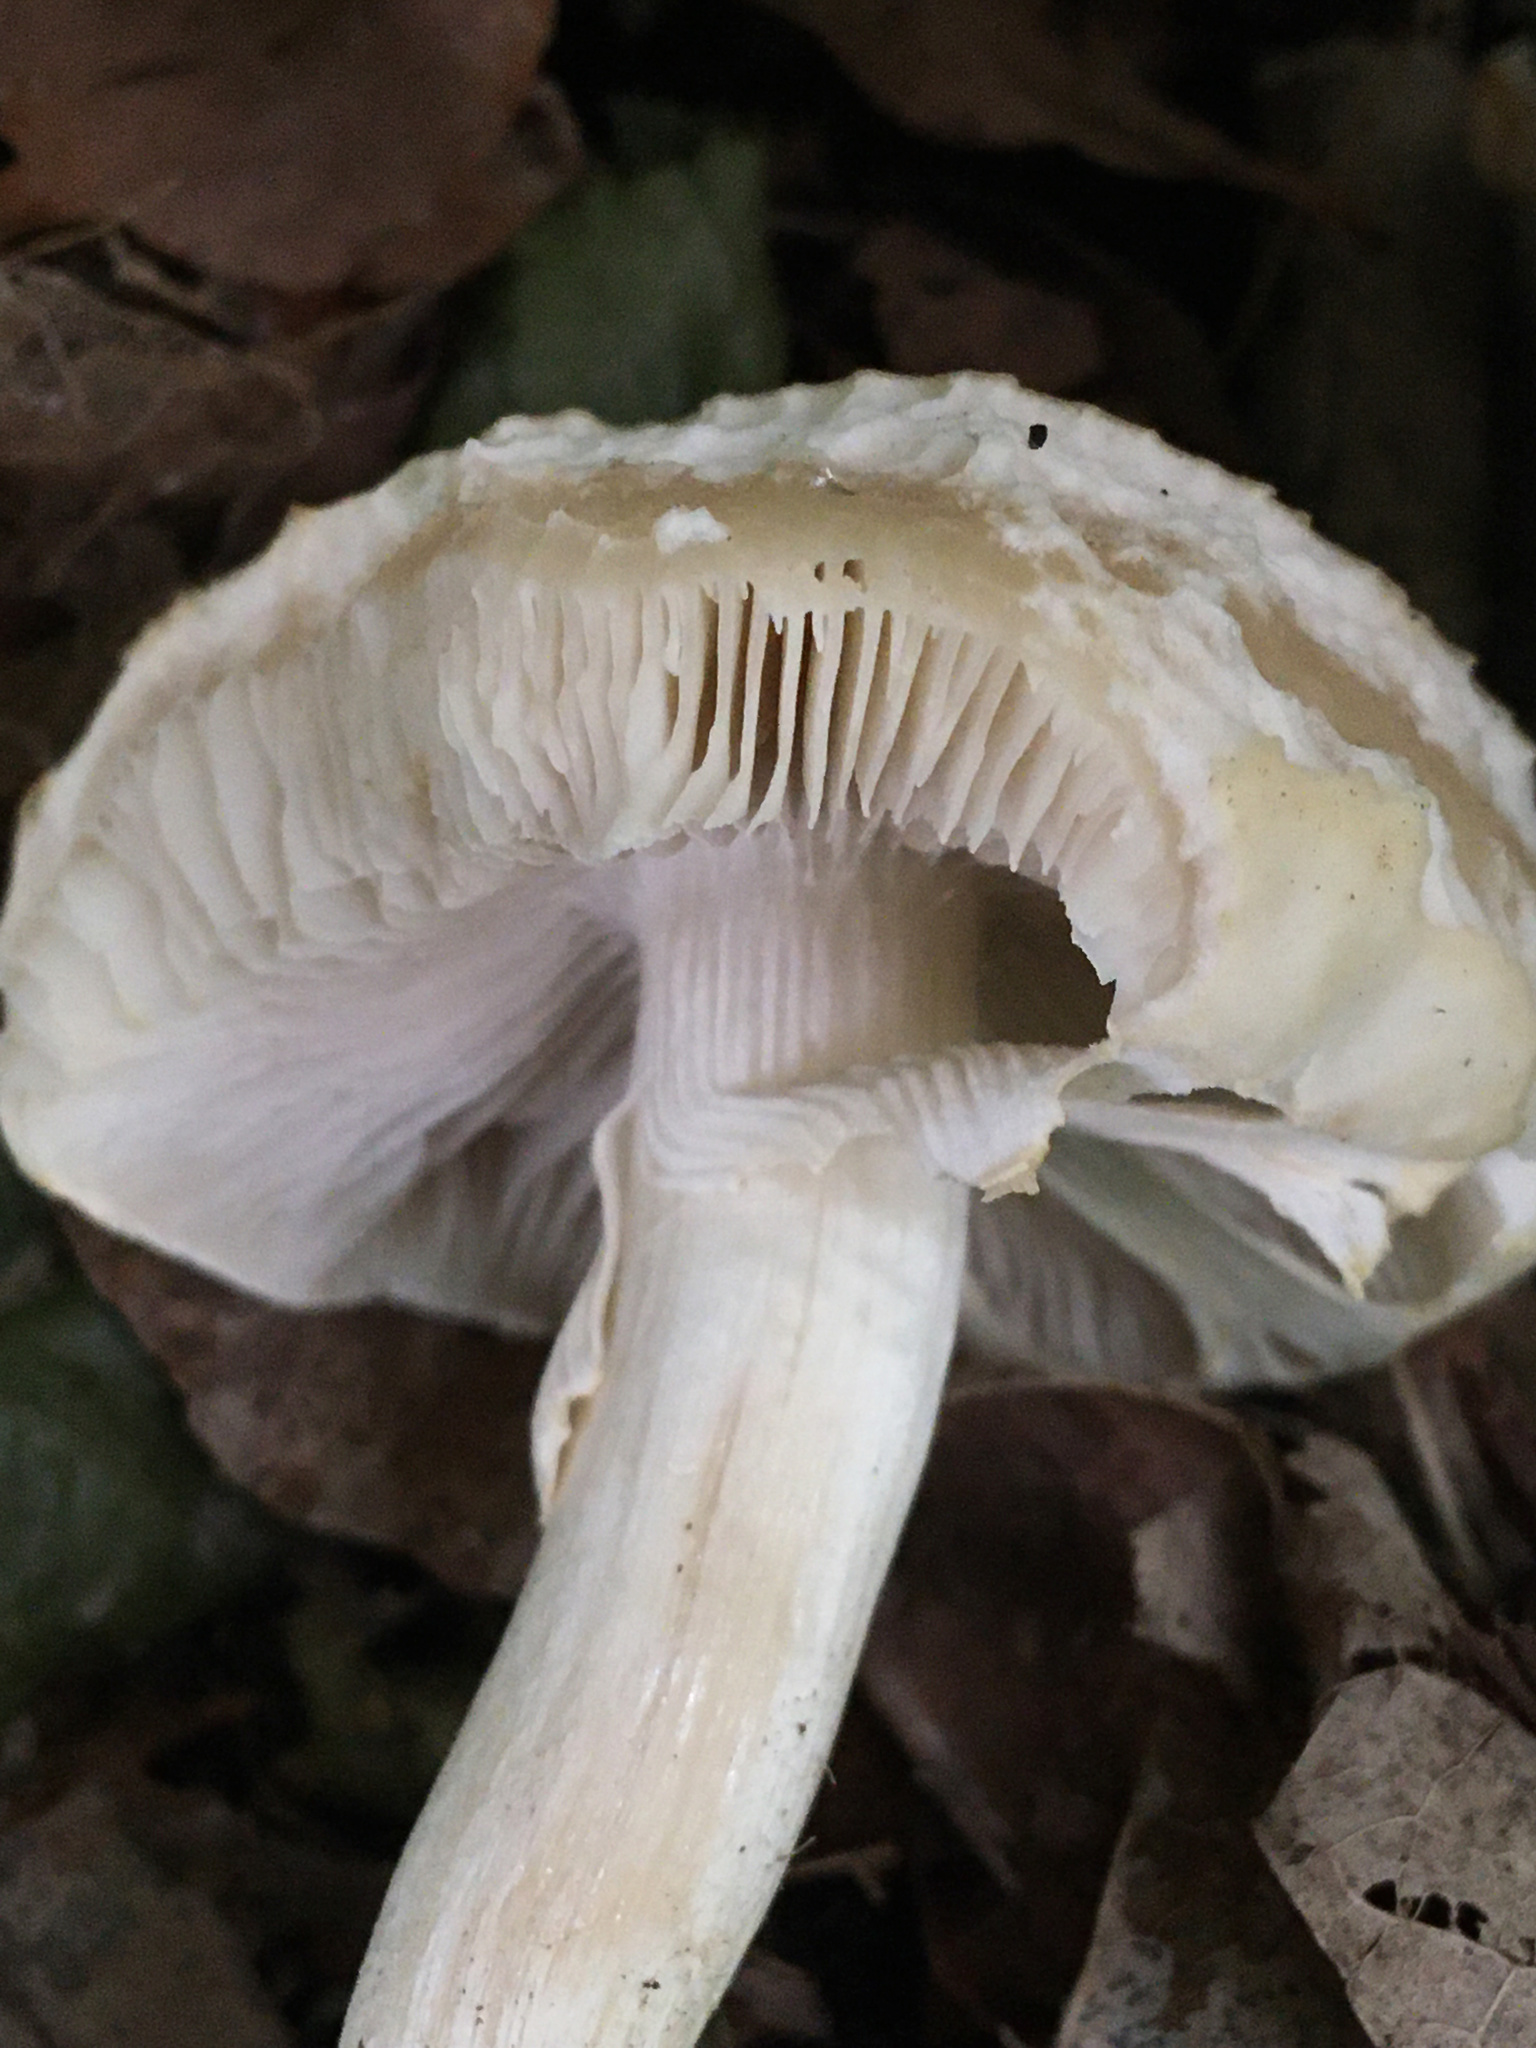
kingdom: Fungi
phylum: Basidiomycota
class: Agaricomycetes
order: Agaricales
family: Strophariaceae
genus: Agrocybe
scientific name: Agrocybe praecox
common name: Spring fieldcap
